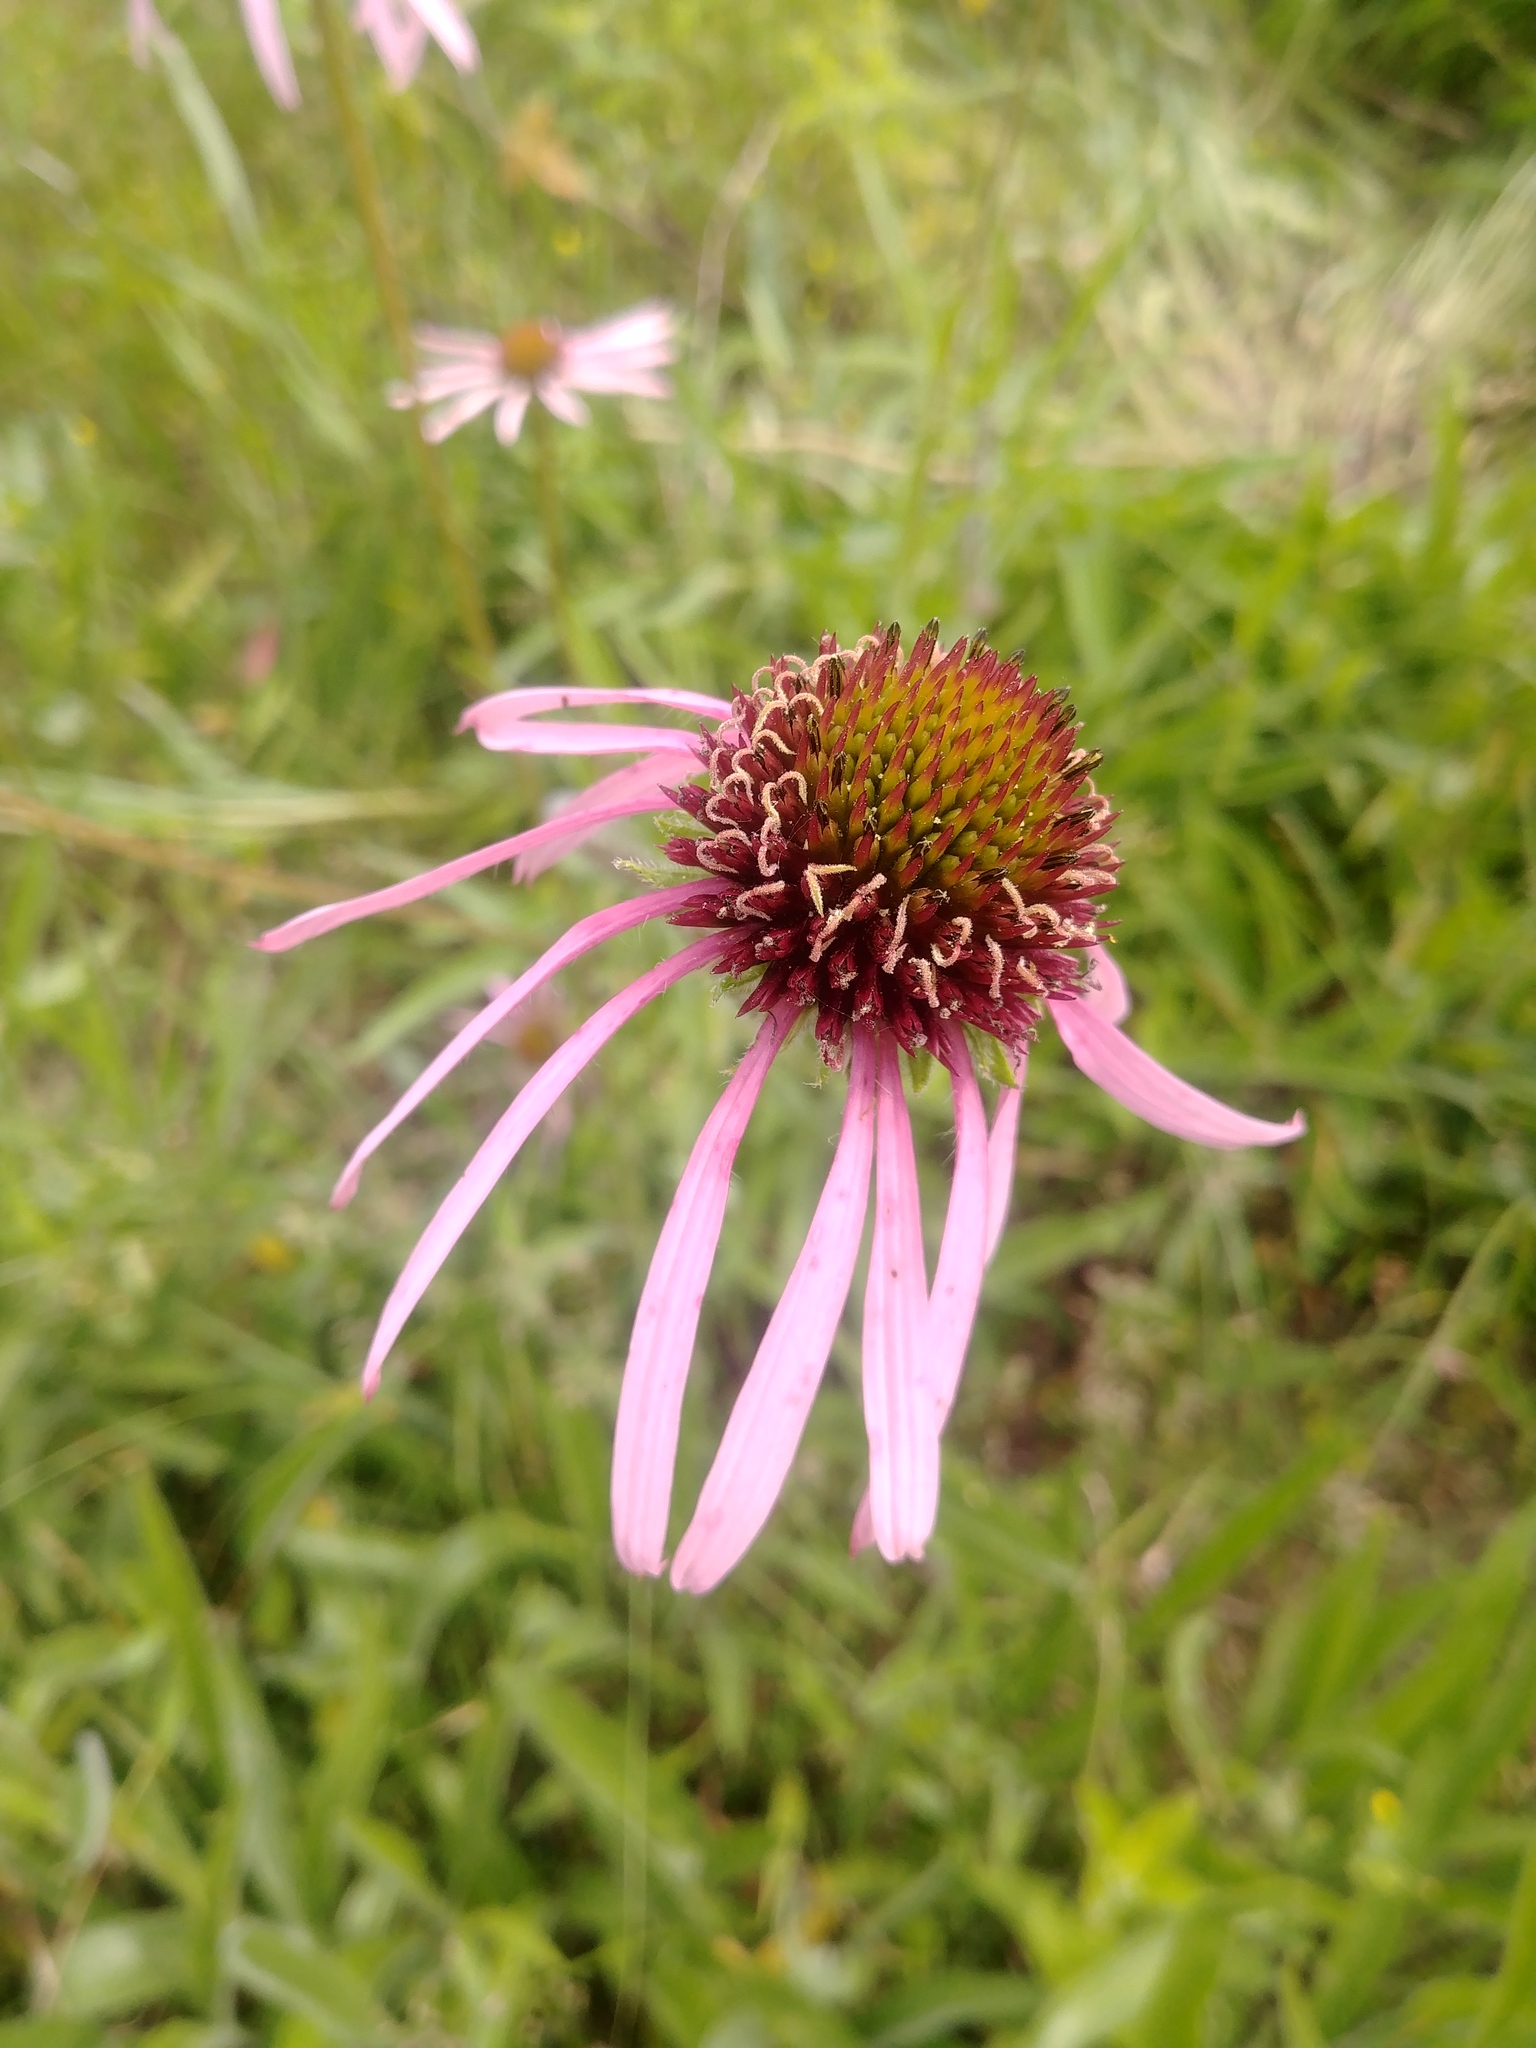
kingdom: Plantae
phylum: Tracheophyta
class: Magnoliopsida
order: Asterales
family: Asteraceae
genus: Echinacea
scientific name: Echinacea pallida
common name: Pale echinacea
